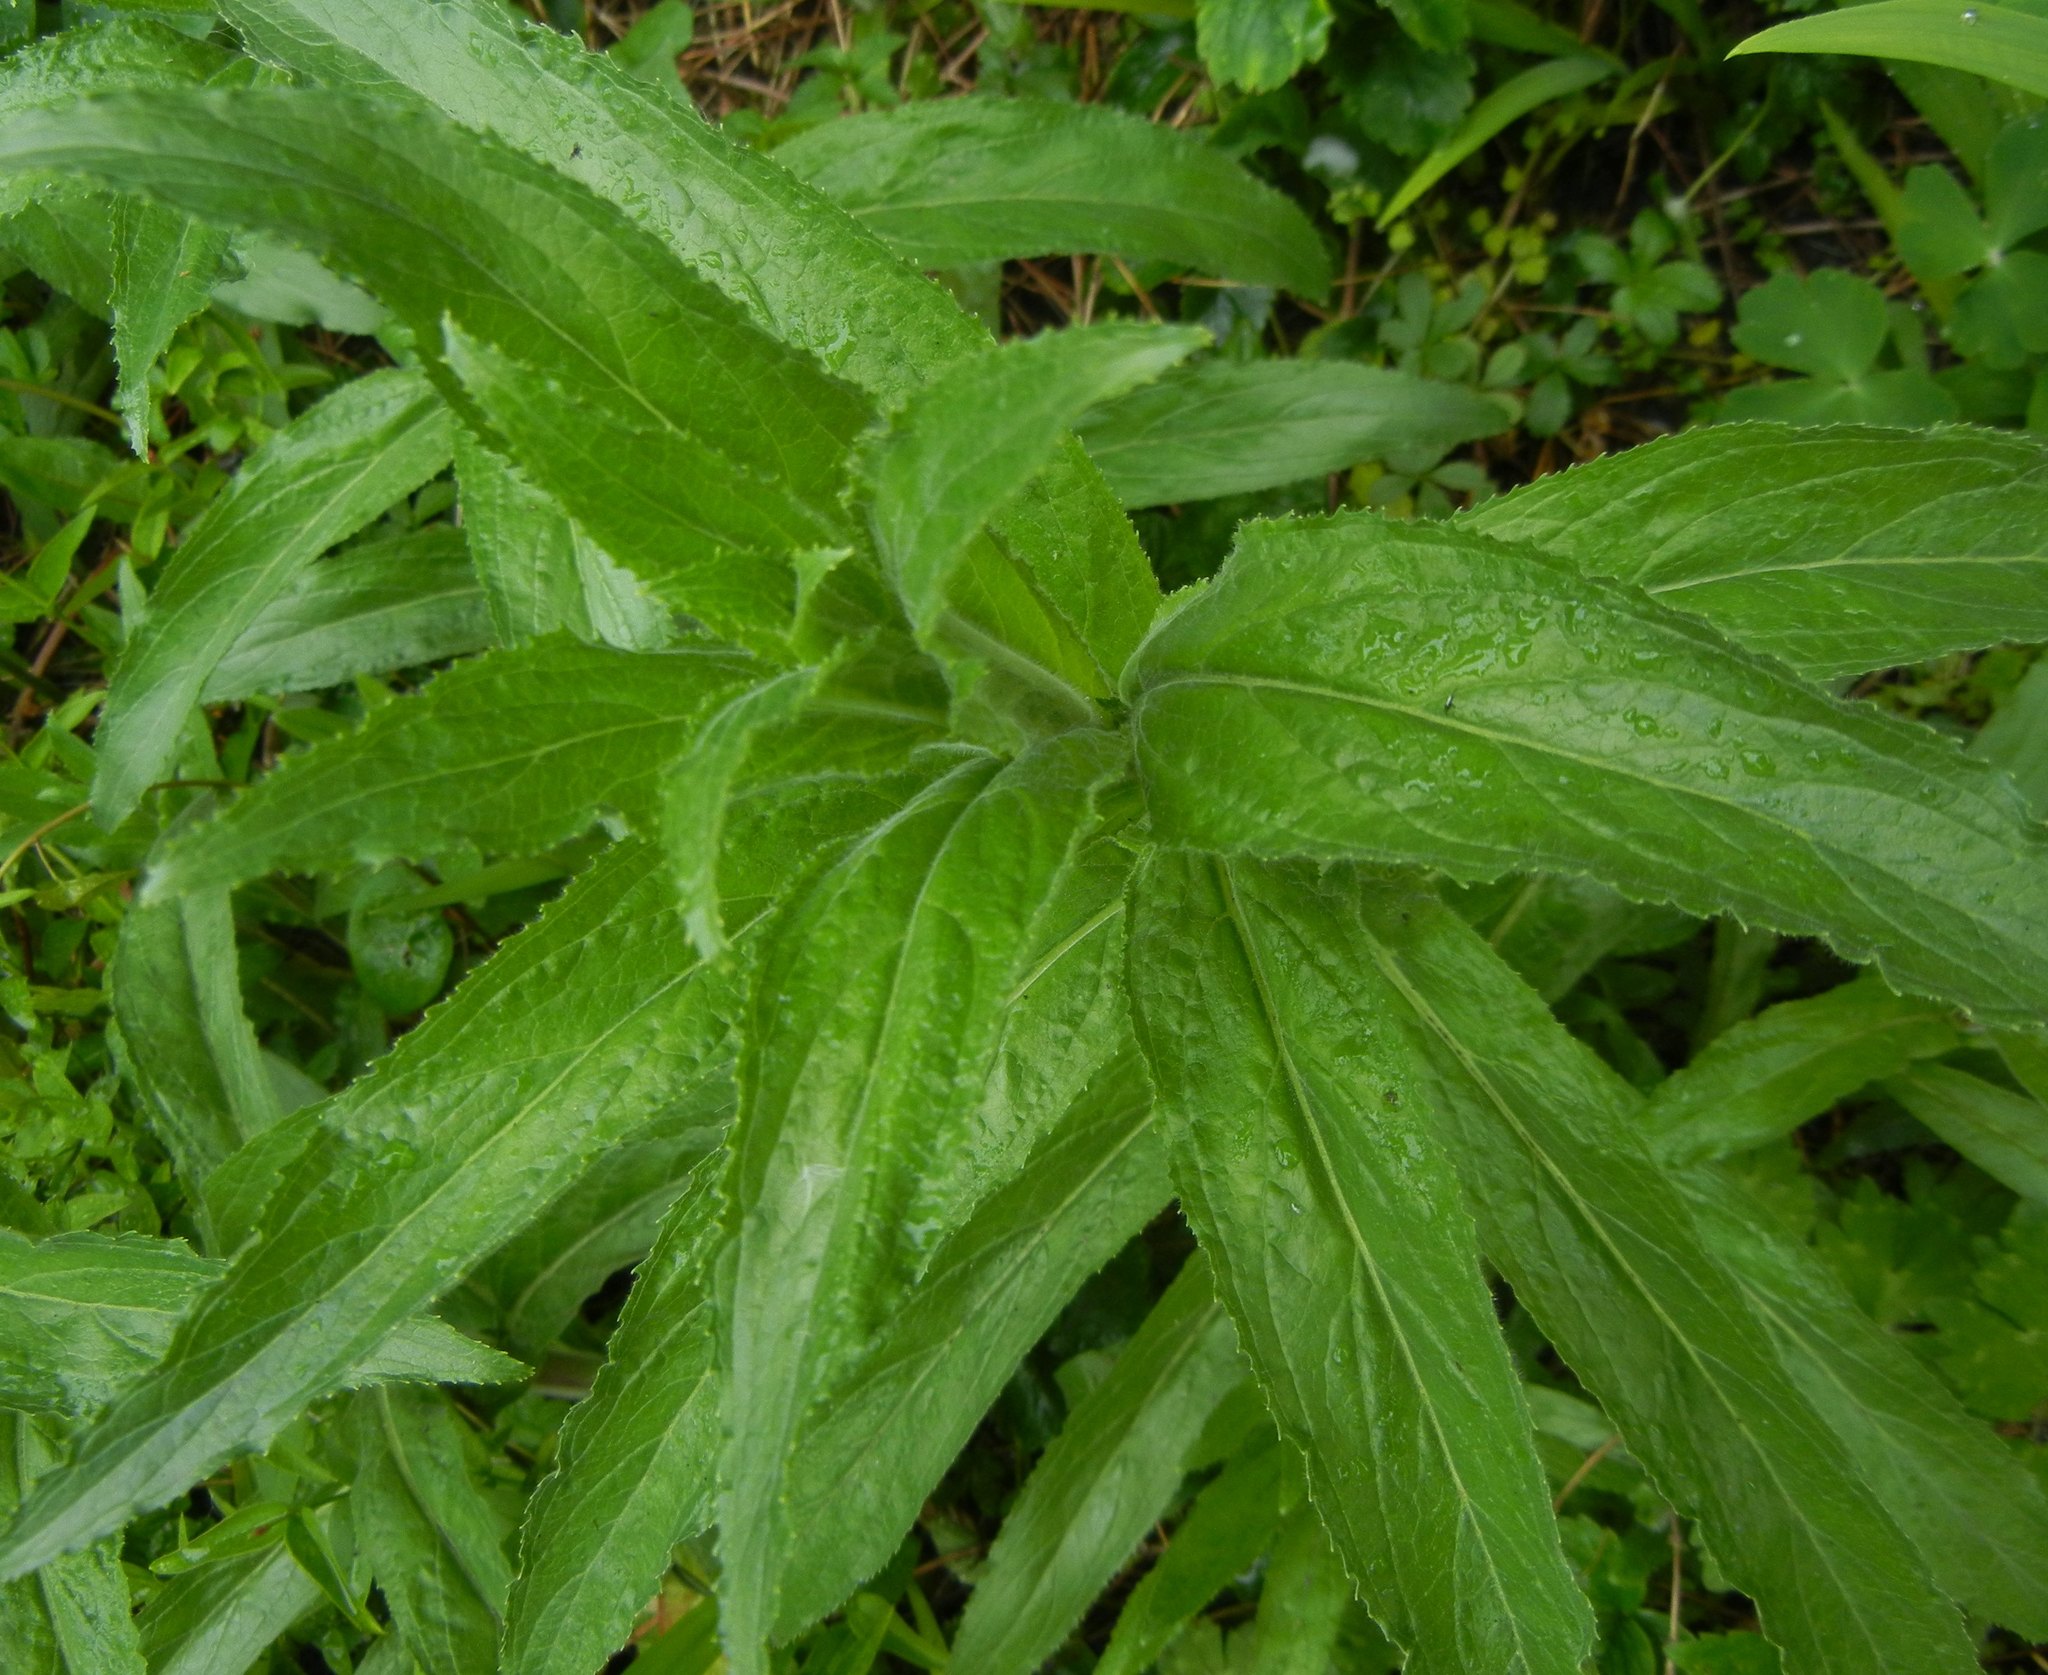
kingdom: Plantae
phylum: Tracheophyta
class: Magnoliopsida
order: Myrtales
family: Onagraceae
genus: Epilobium
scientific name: Epilobium hirsutum
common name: Great willowherb
